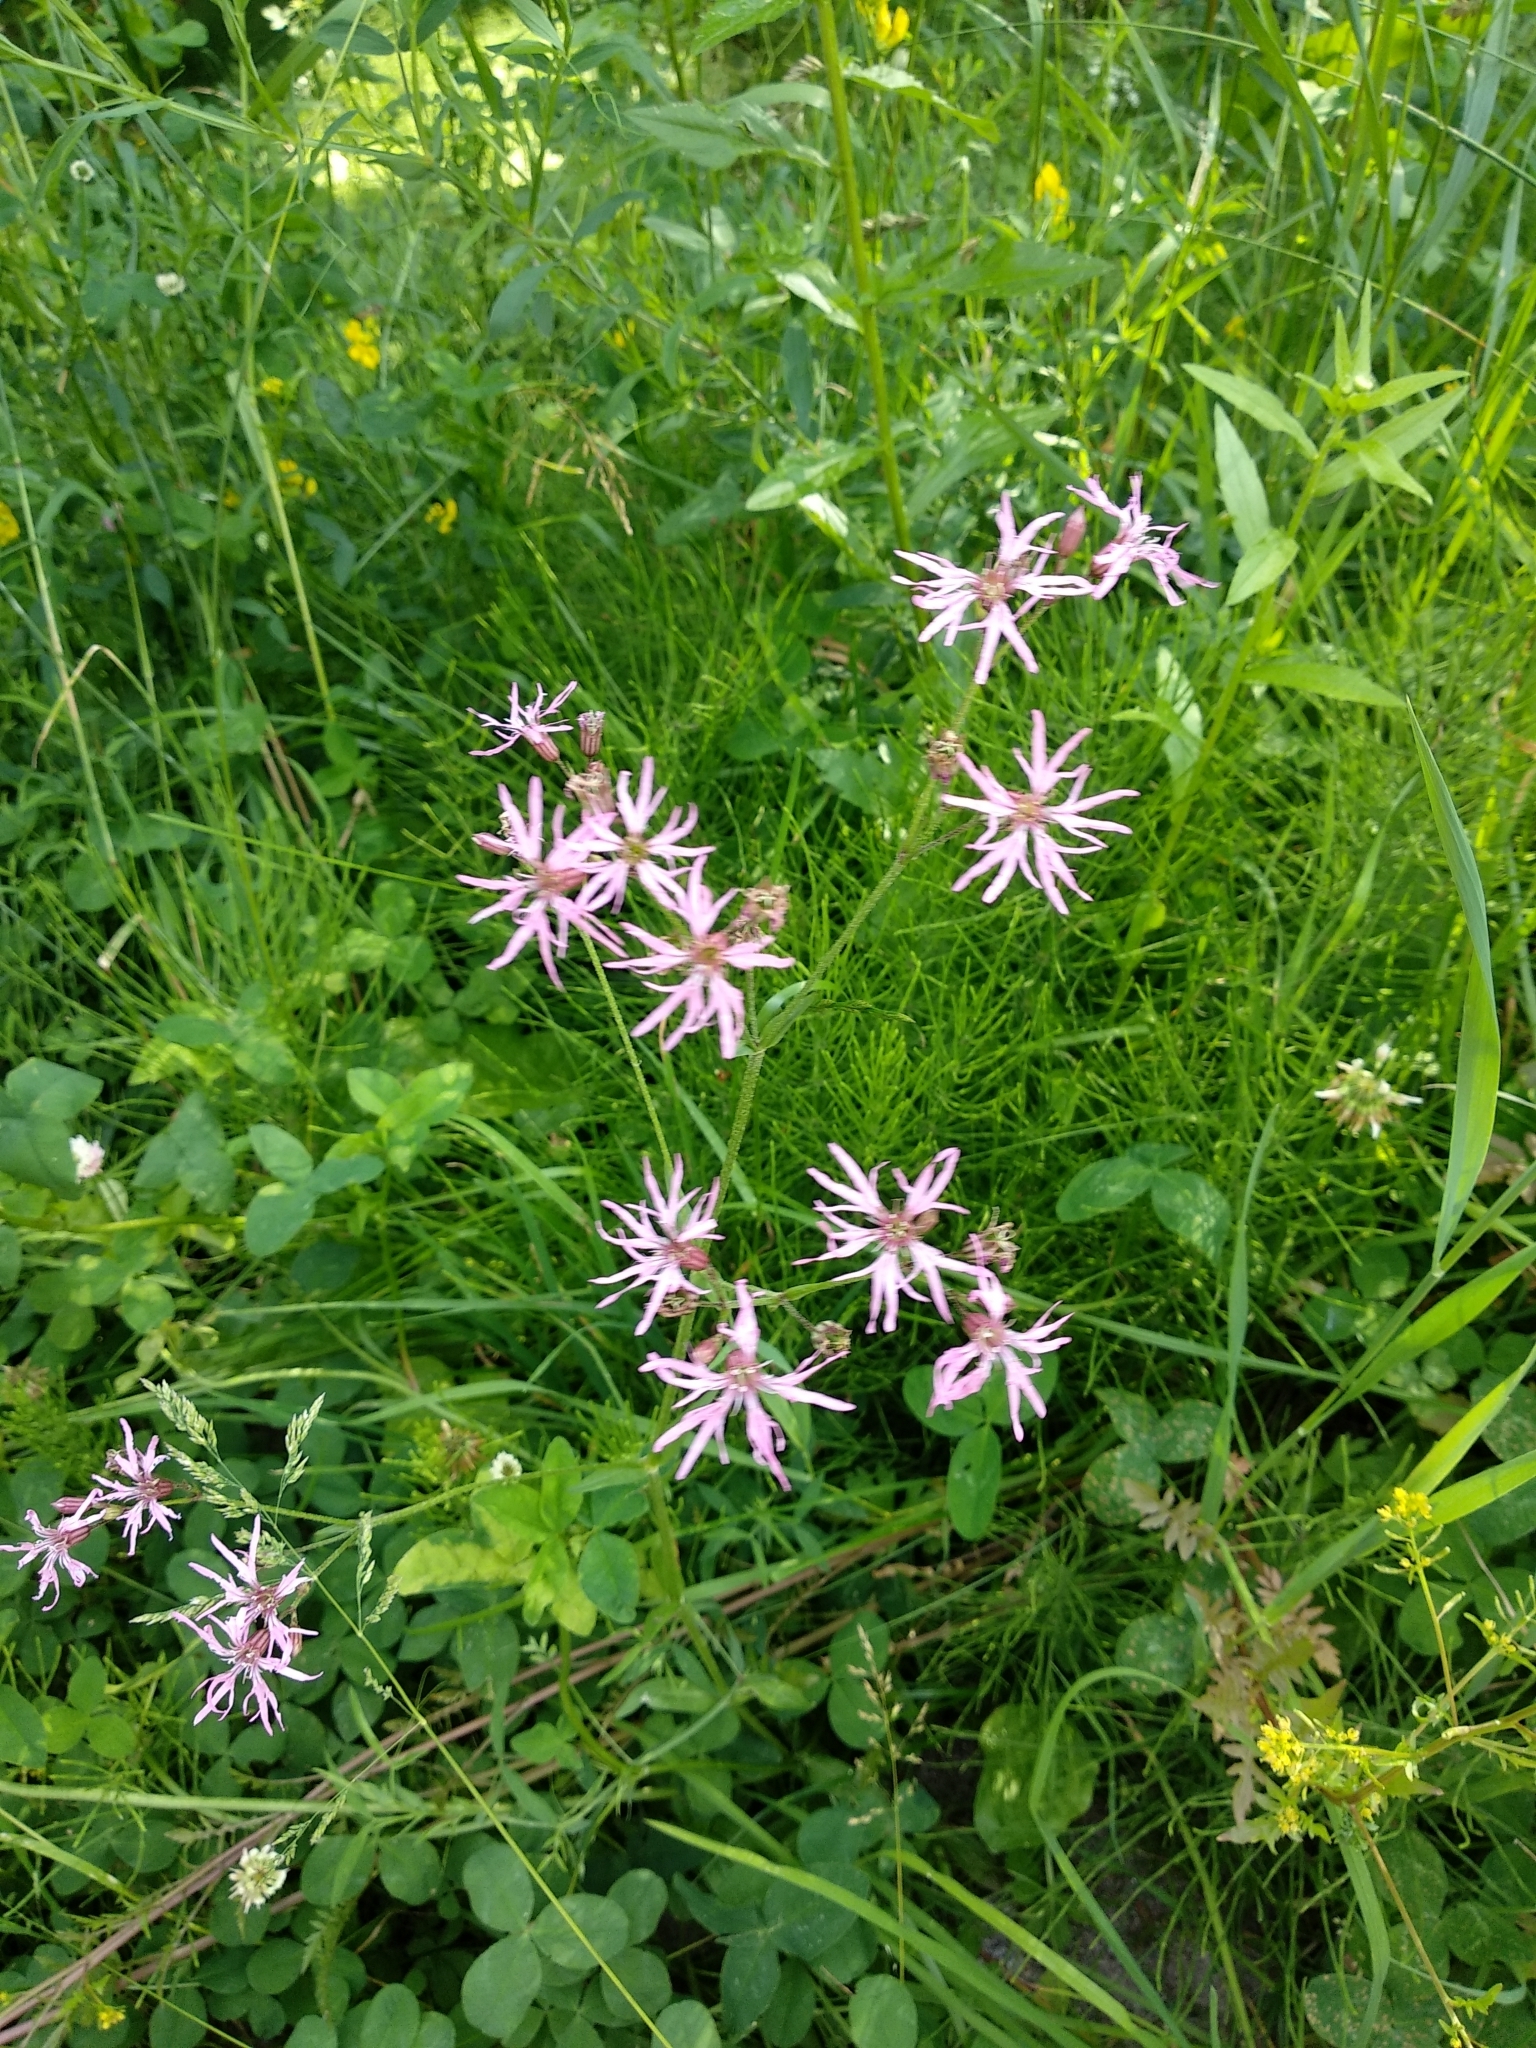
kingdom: Plantae
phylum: Tracheophyta
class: Magnoliopsida
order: Caryophyllales
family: Caryophyllaceae
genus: Silene
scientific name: Silene flos-cuculi
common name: Ragged-robin
